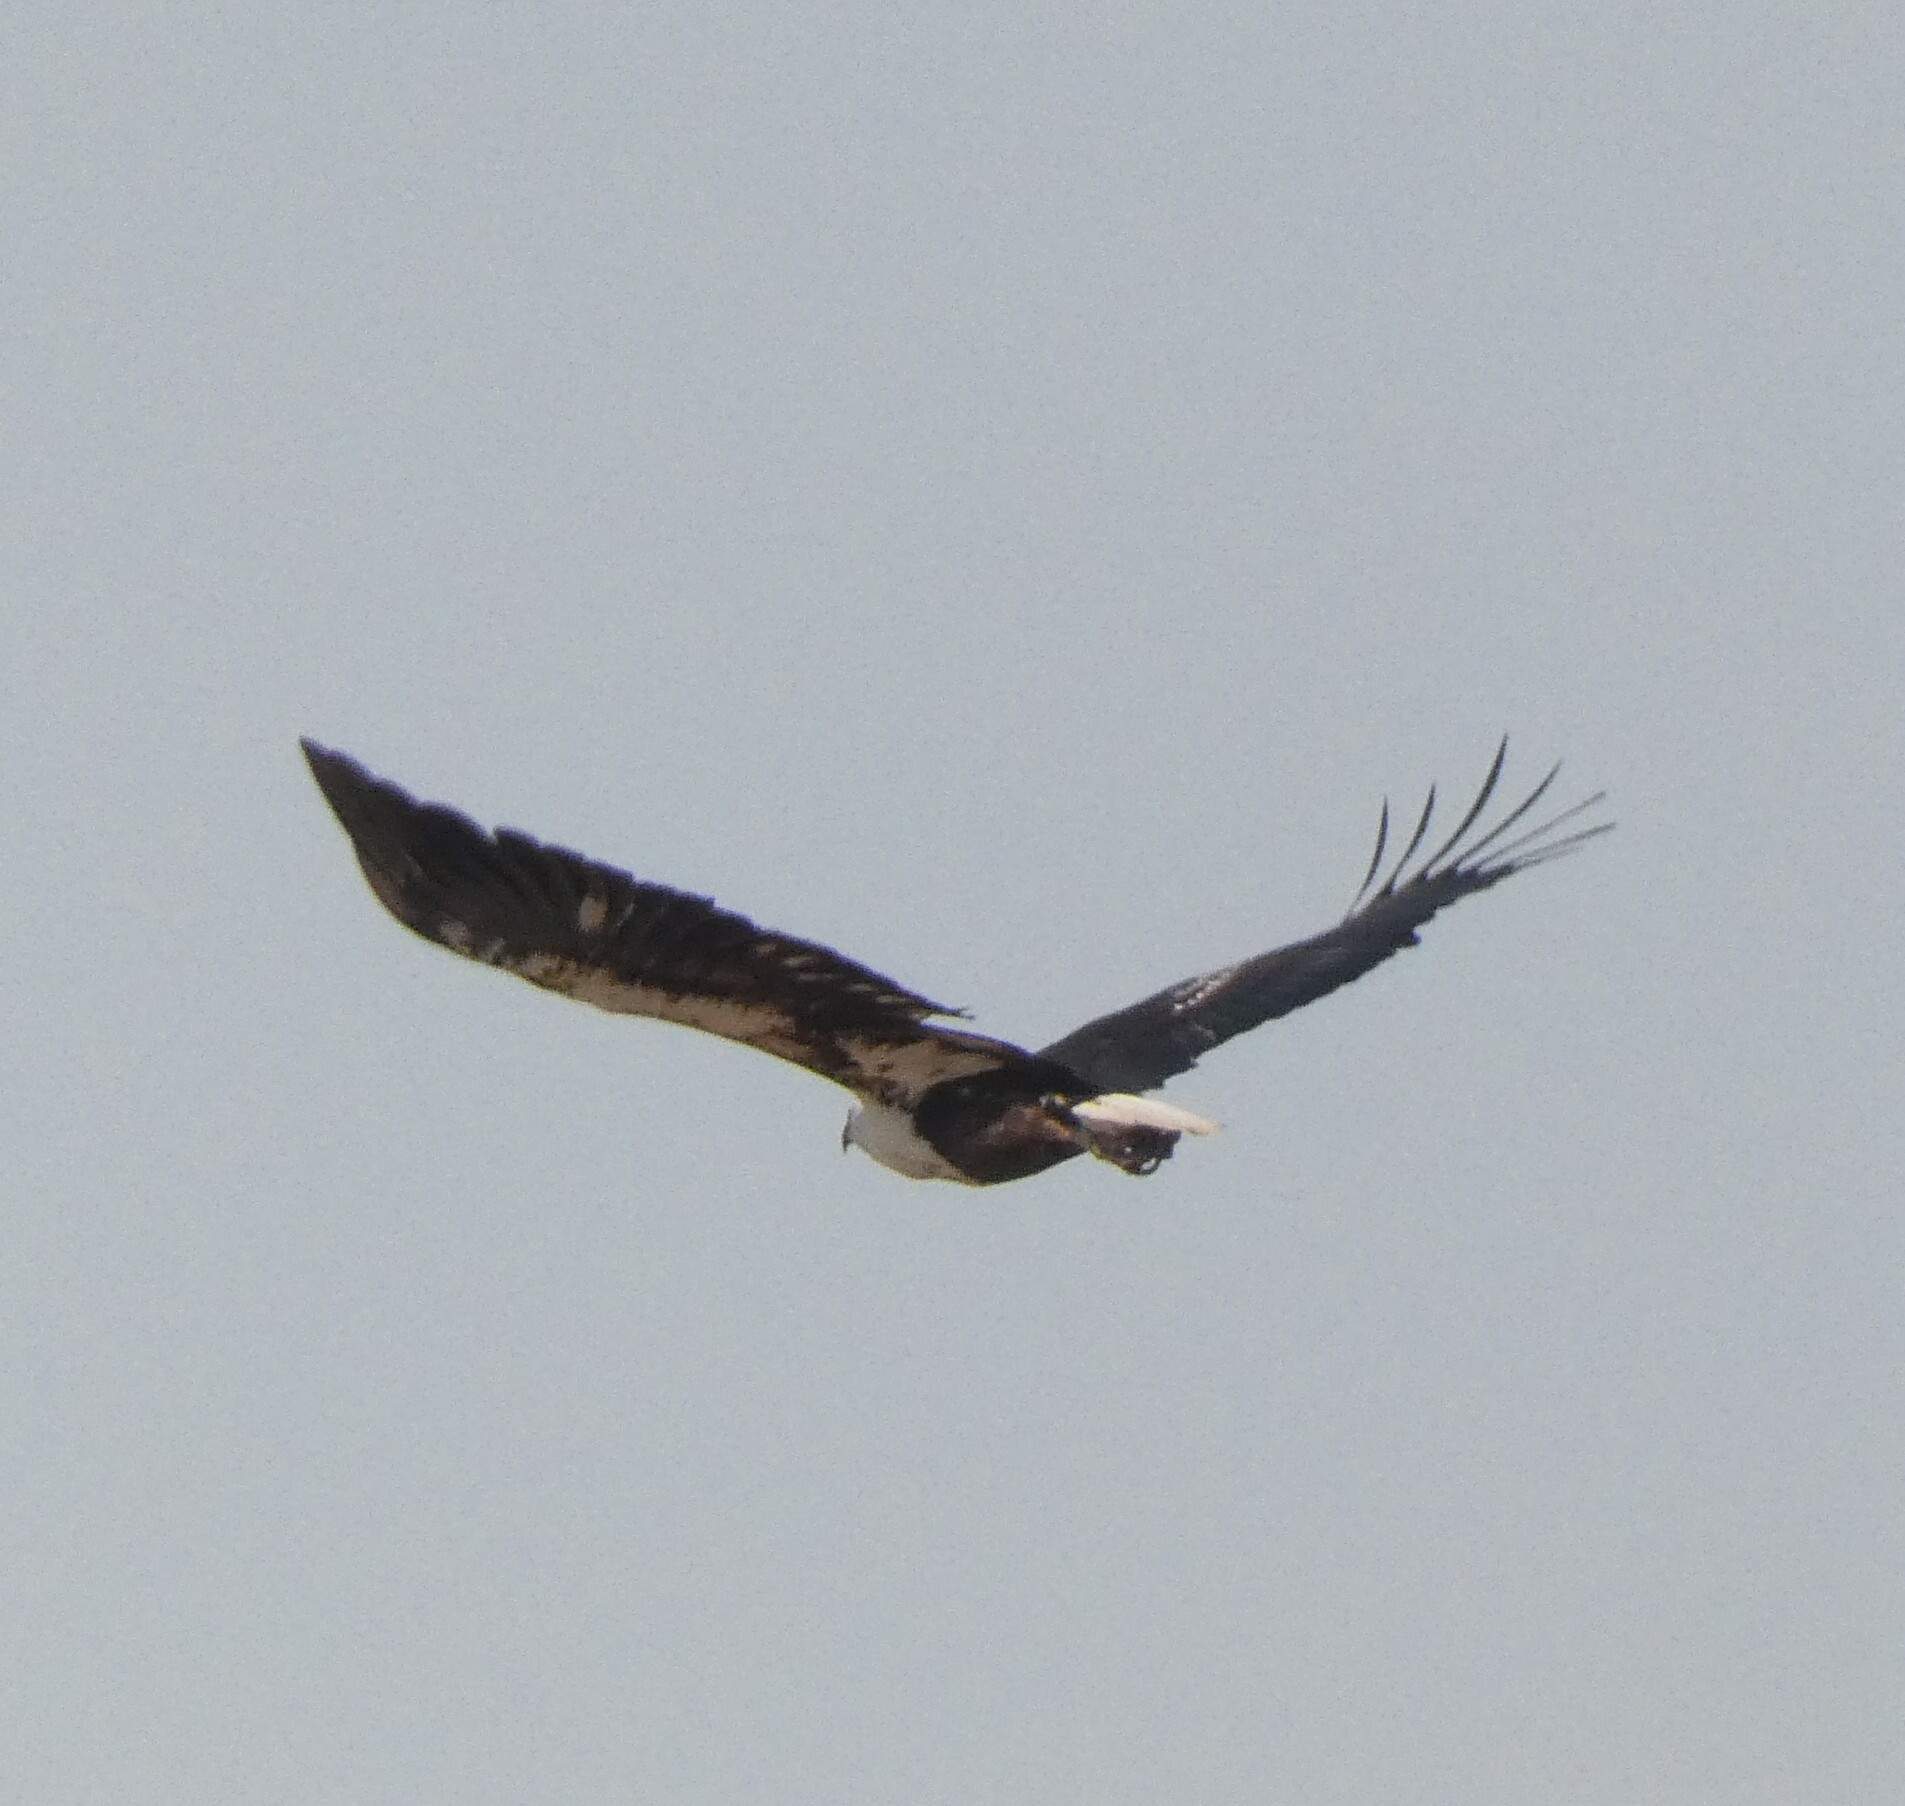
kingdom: Animalia
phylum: Chordata
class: Aves
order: Accipitriformes
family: Accipitridae
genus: Haliaeetus
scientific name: Haliaeetus vocifer
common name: African fish eagle
